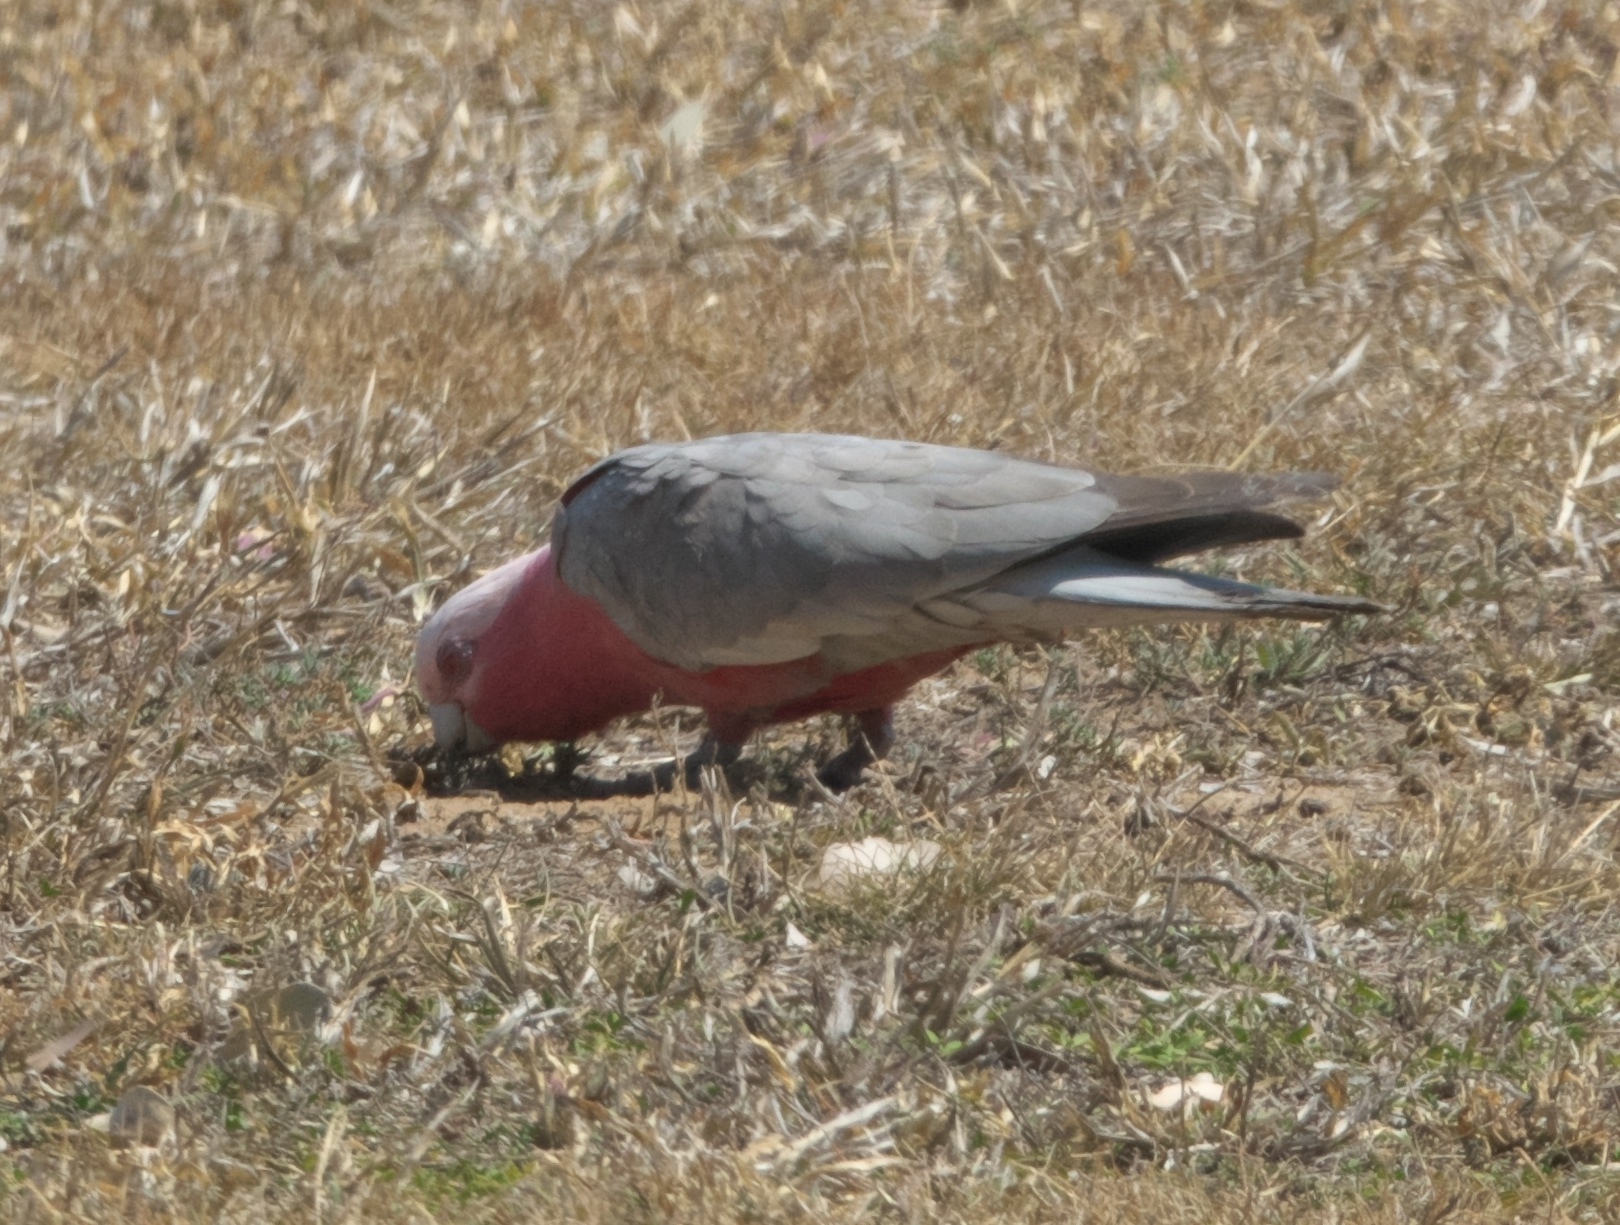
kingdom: Animalia
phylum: Chordata
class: Aves
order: Psittaciformes
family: Psittacidae
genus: Eolophus
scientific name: Eolophus roseicapilla
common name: Galah
